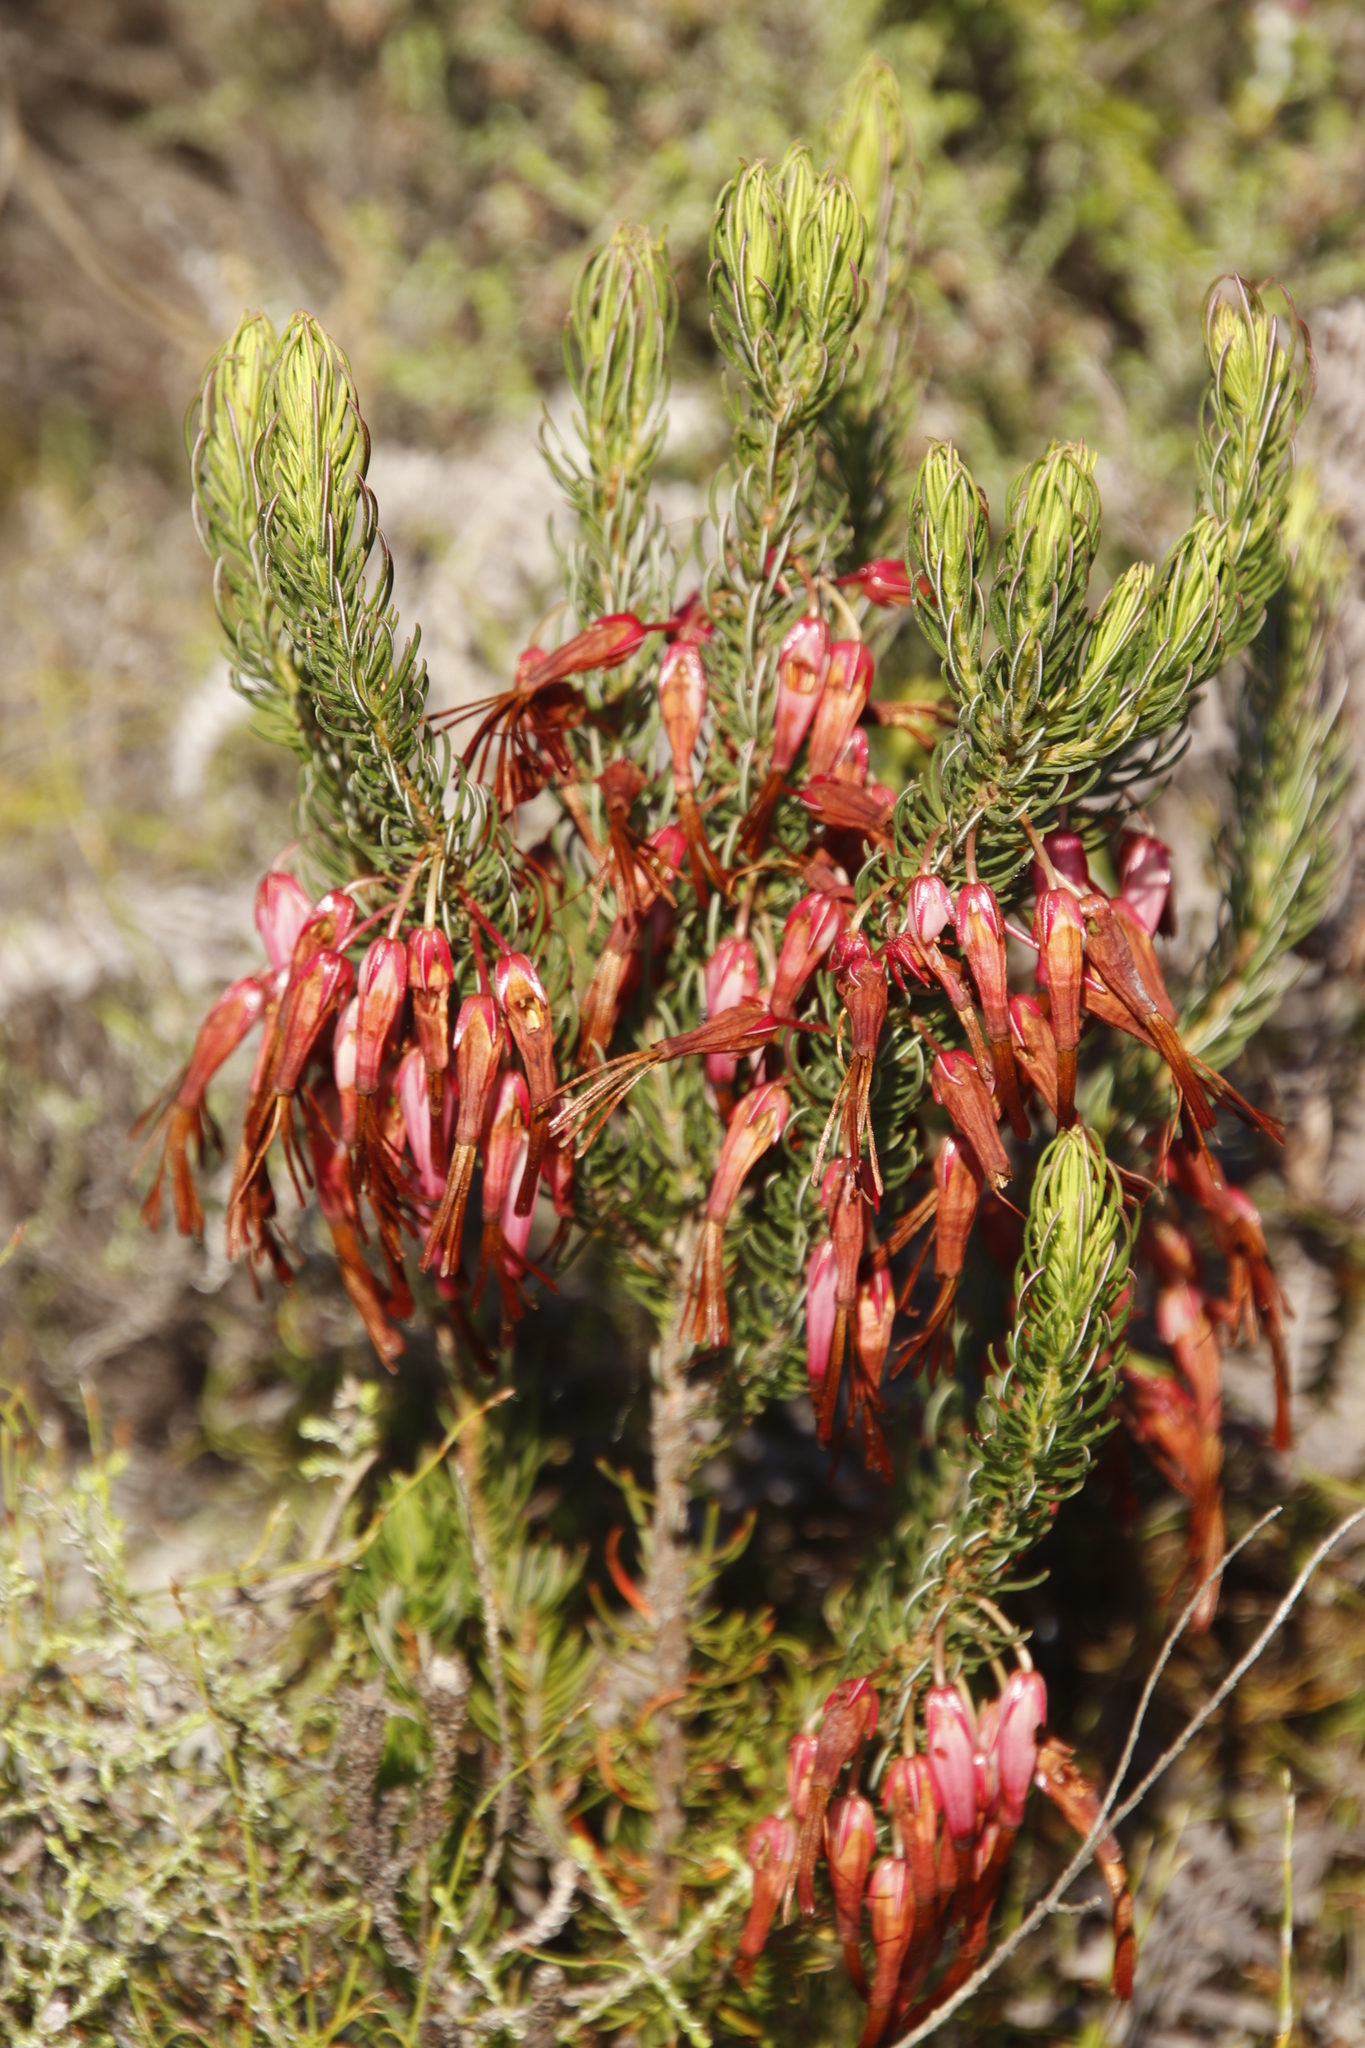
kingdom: Plantae
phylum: Tracheophyta
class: Magnoliopsida
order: Ericales
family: Ericaceae
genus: Erica
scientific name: Erica plukenetii
